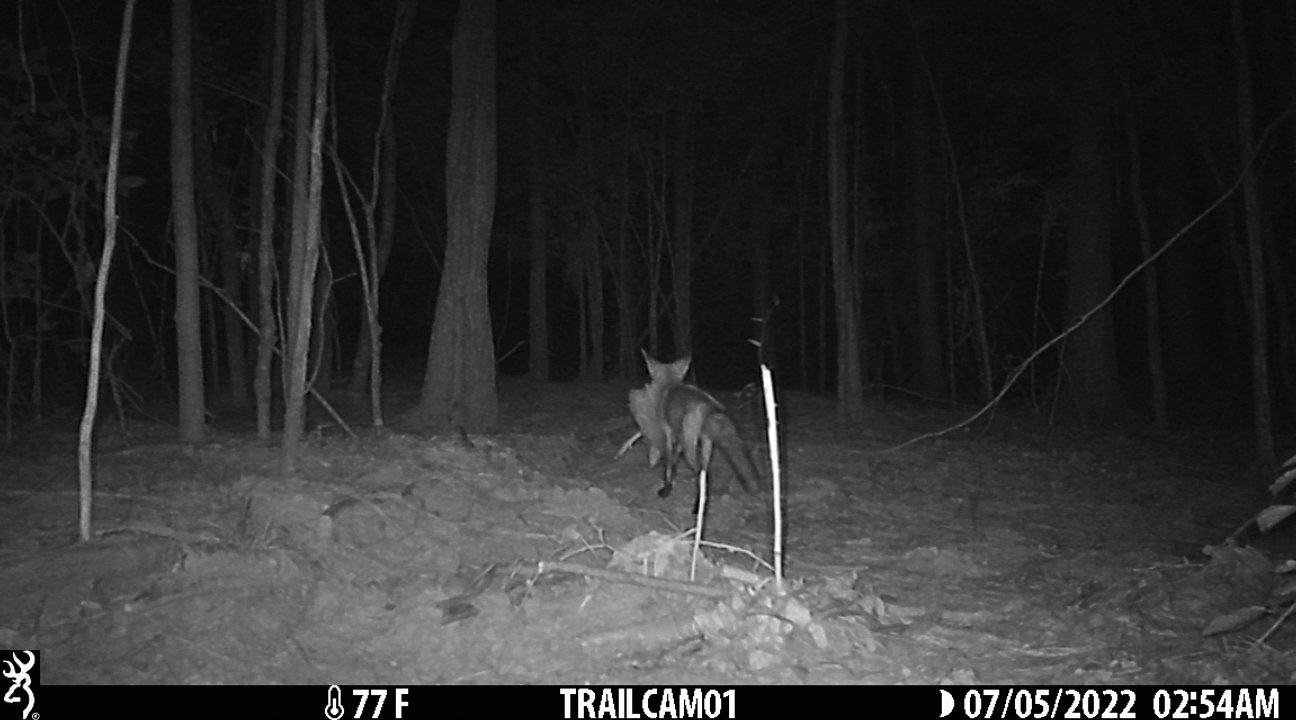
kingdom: Animalia
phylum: Chordata
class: Aves
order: Galliformes
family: Phasianidae
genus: Meleagris
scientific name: Meleagris gallopavo
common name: Wild turkey
